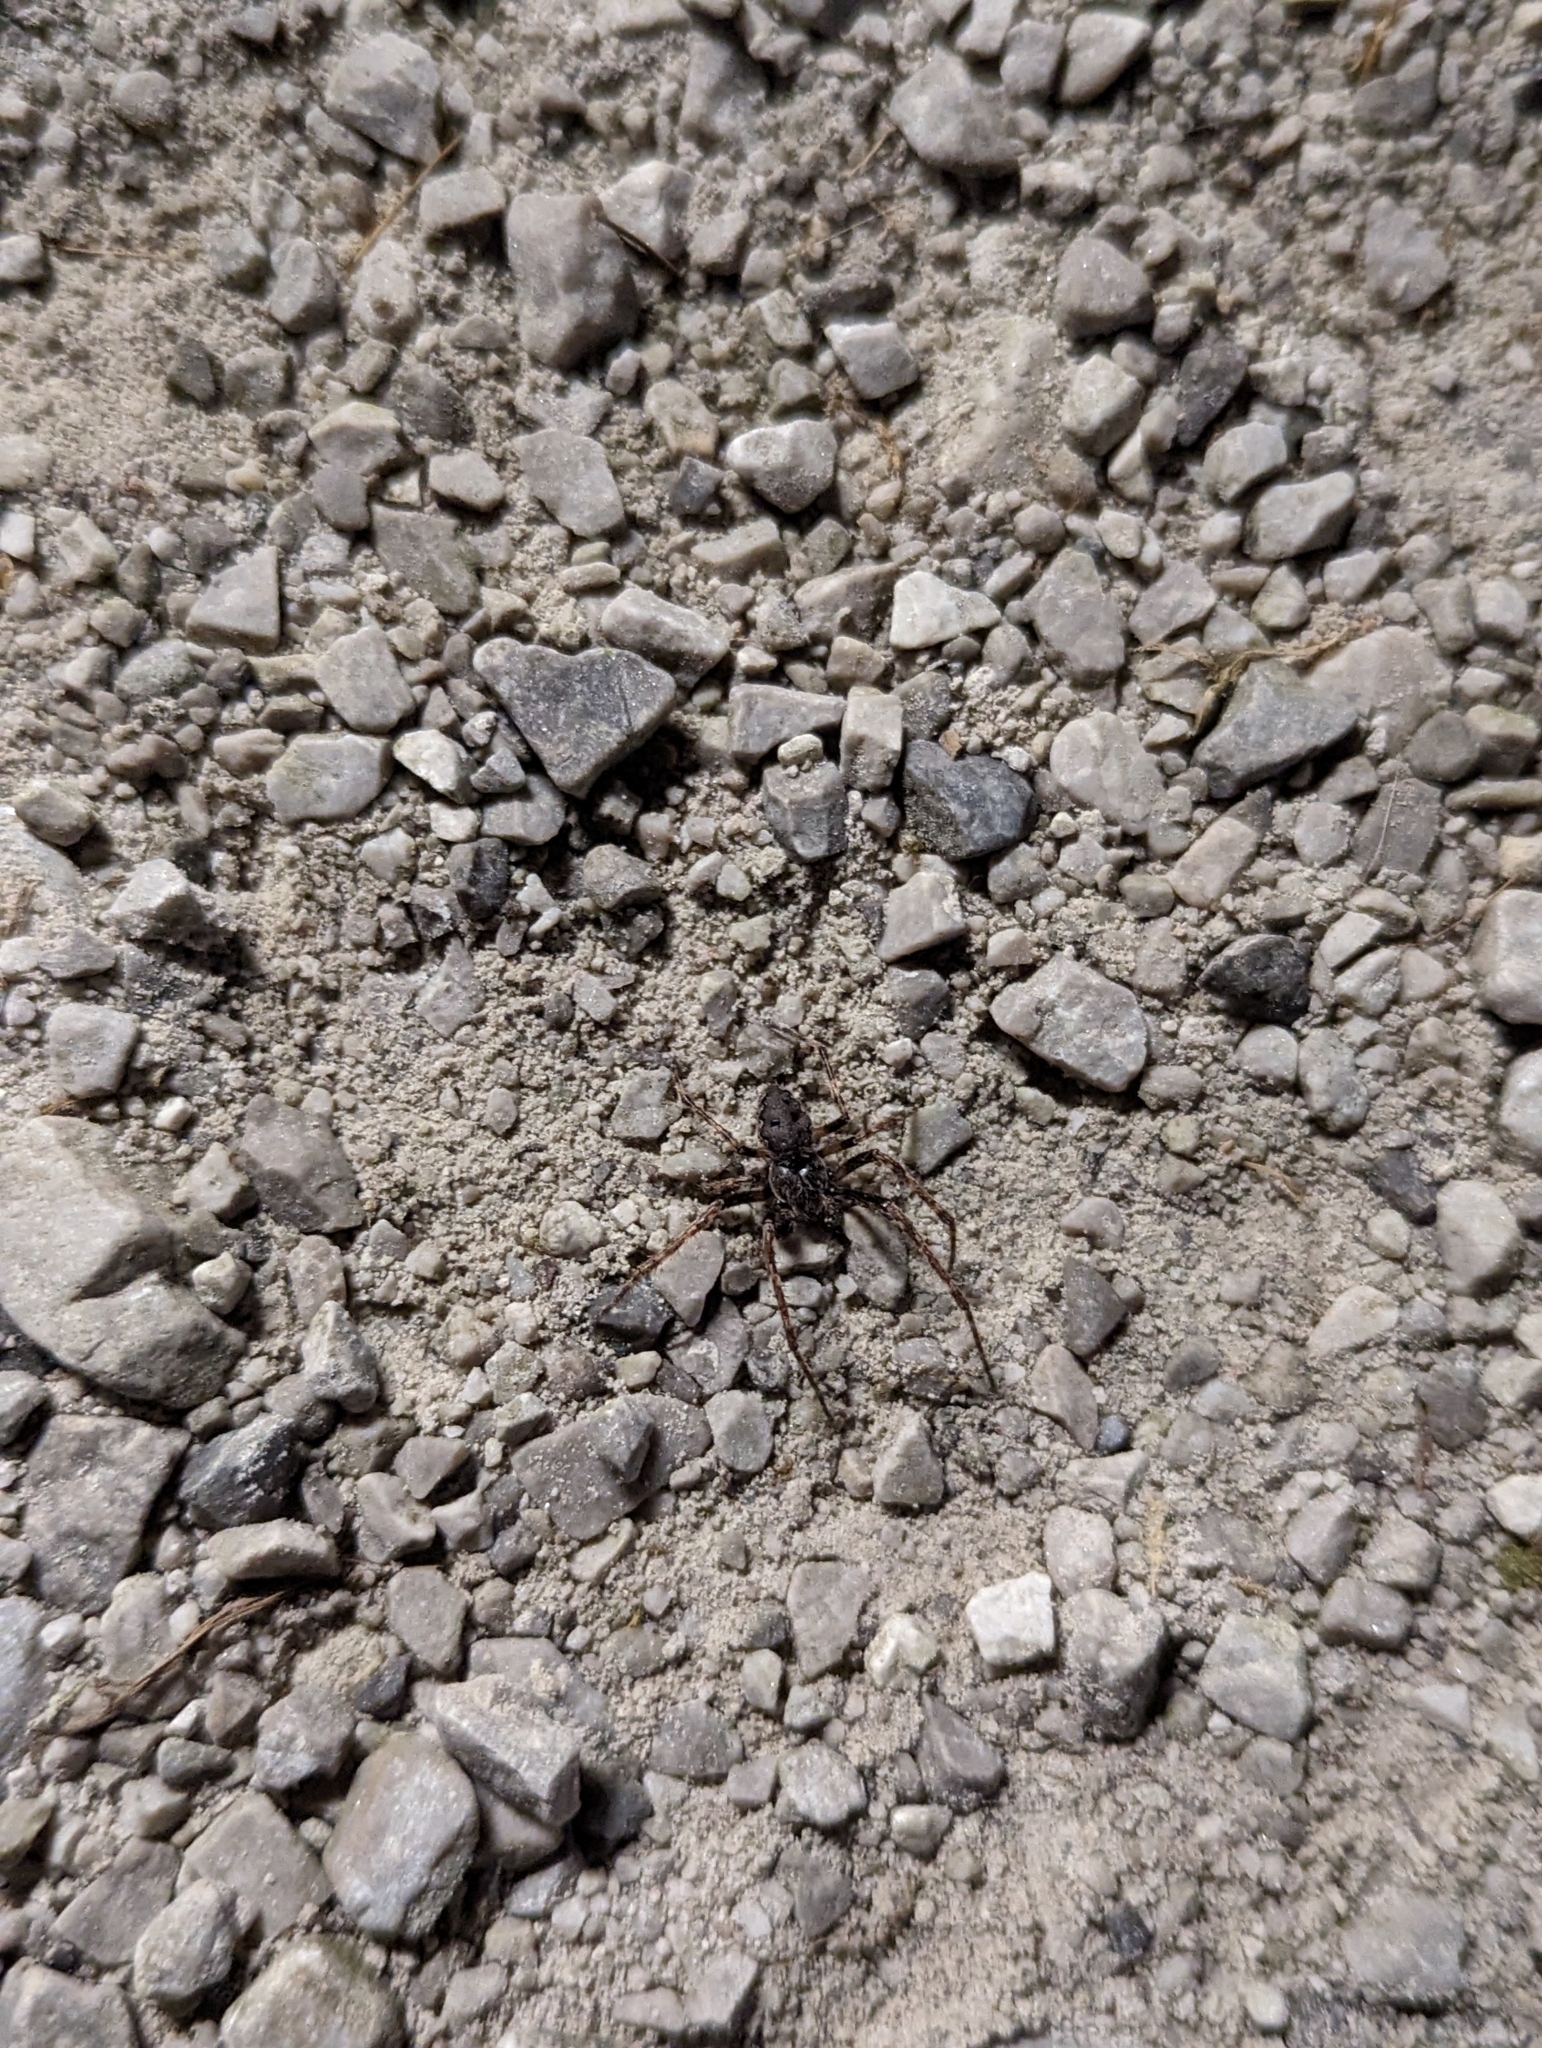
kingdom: Animalia
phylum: Arthropoda
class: Arachnida
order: Araneae
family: Araneidae
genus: Nuctenea
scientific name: Nuctenea umbratica
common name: Toad spider
